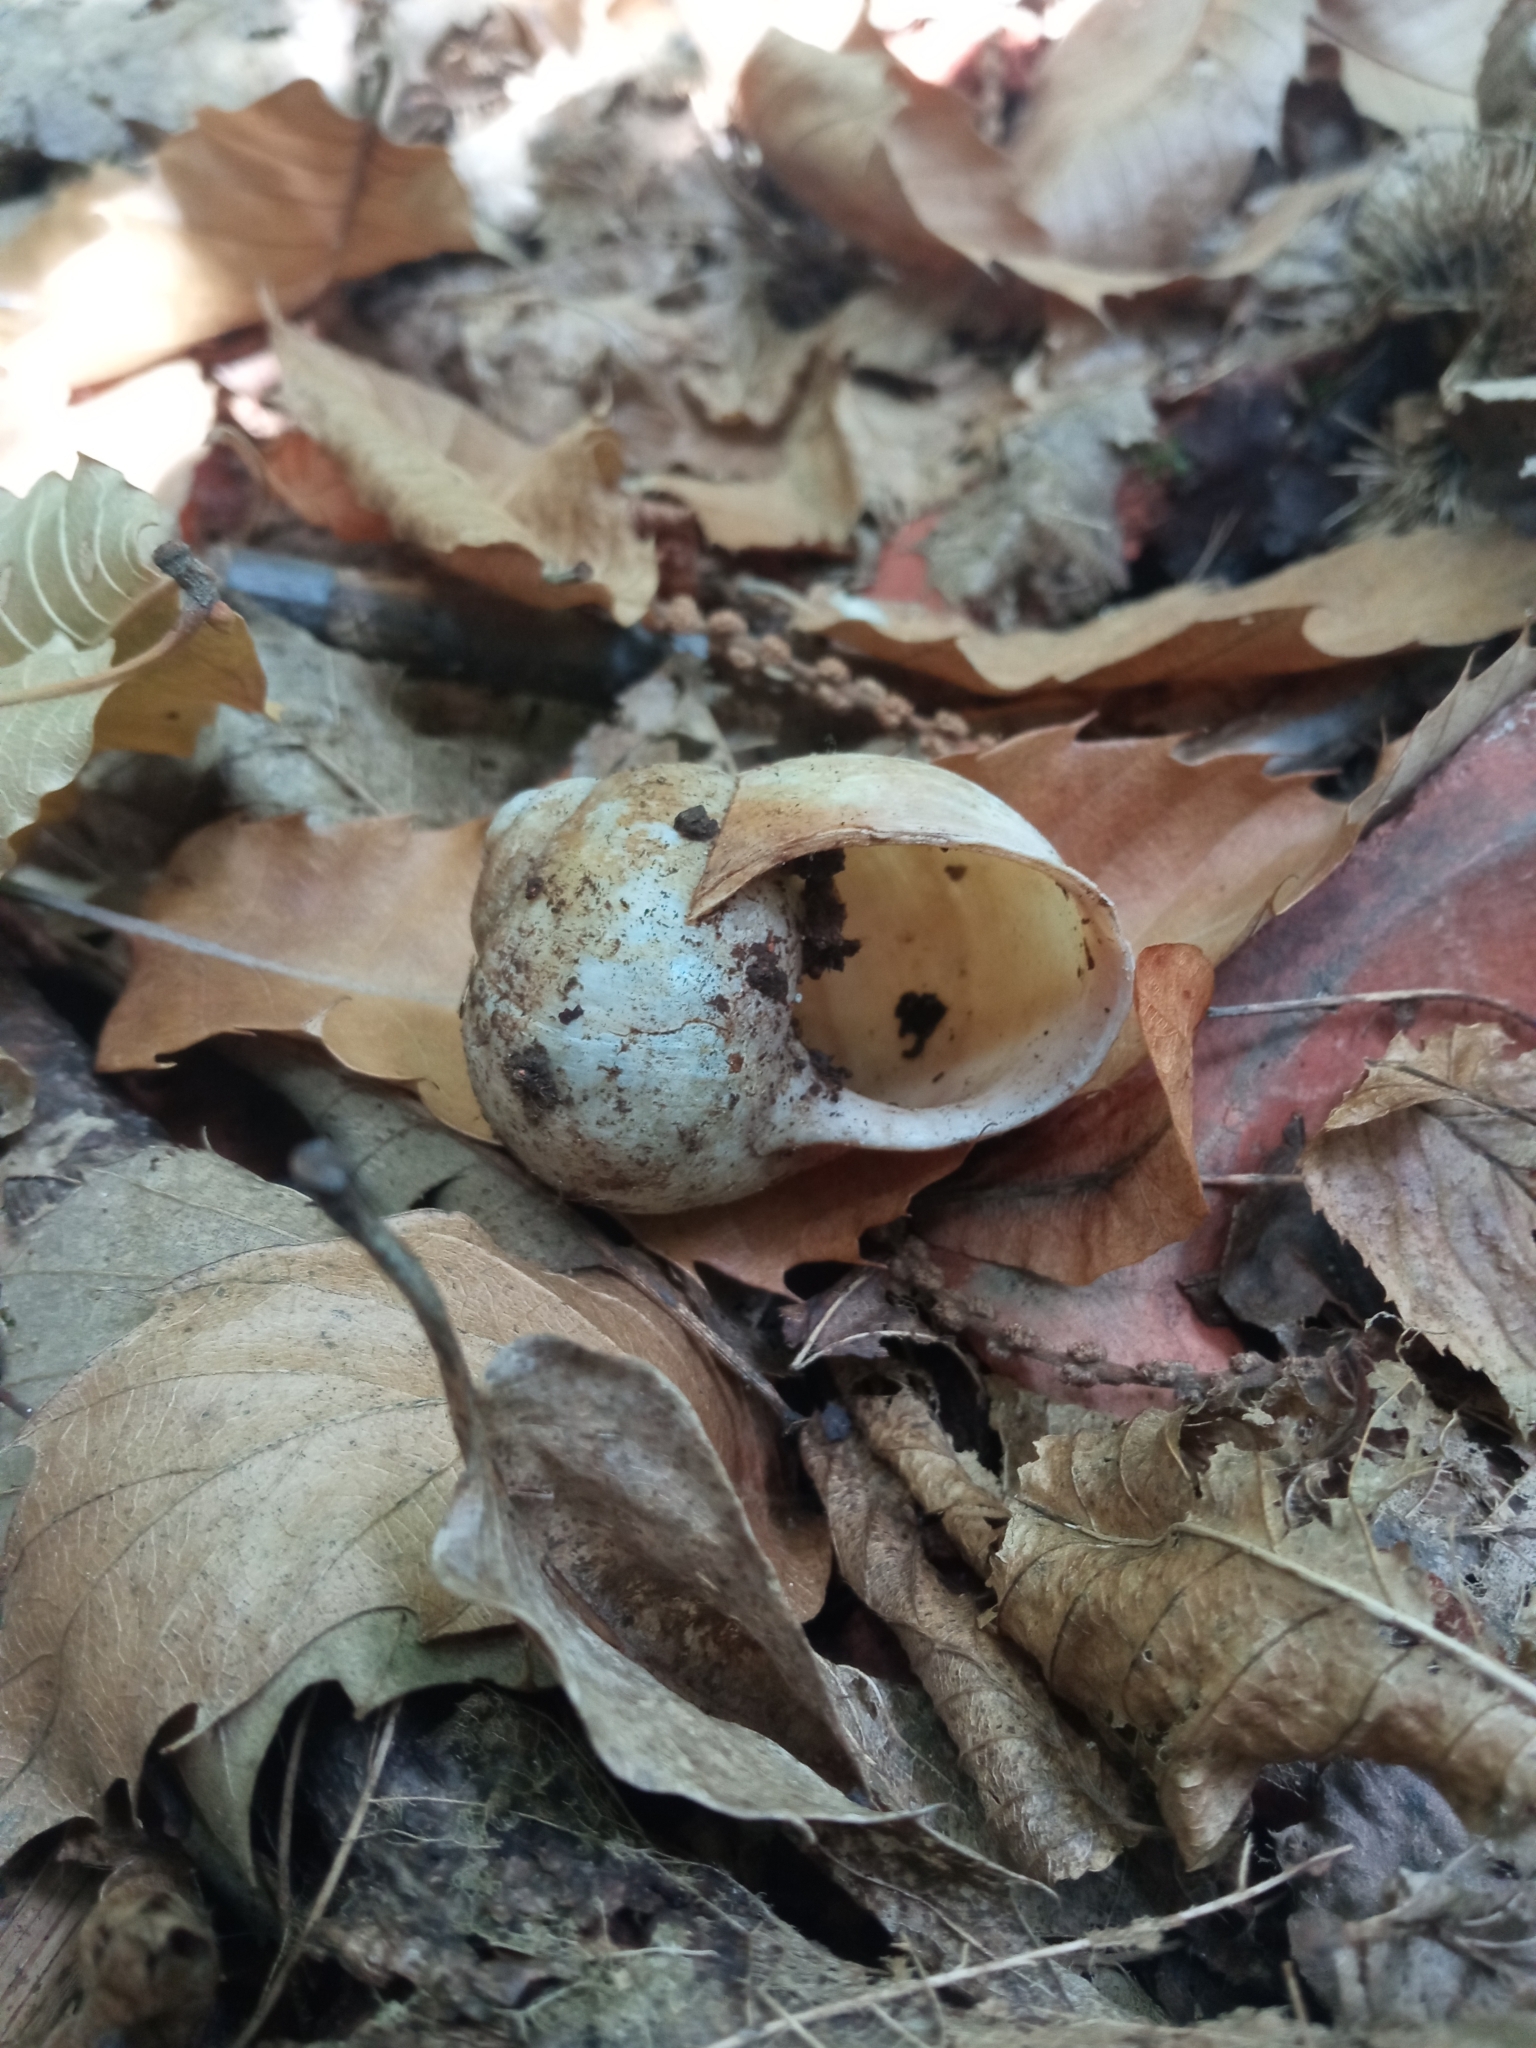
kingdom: Animalia
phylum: Mollusca
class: Gastropoda
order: Stylommatophora
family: Helicidae
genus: Helix
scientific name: Helix pomatia
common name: Roman snail
